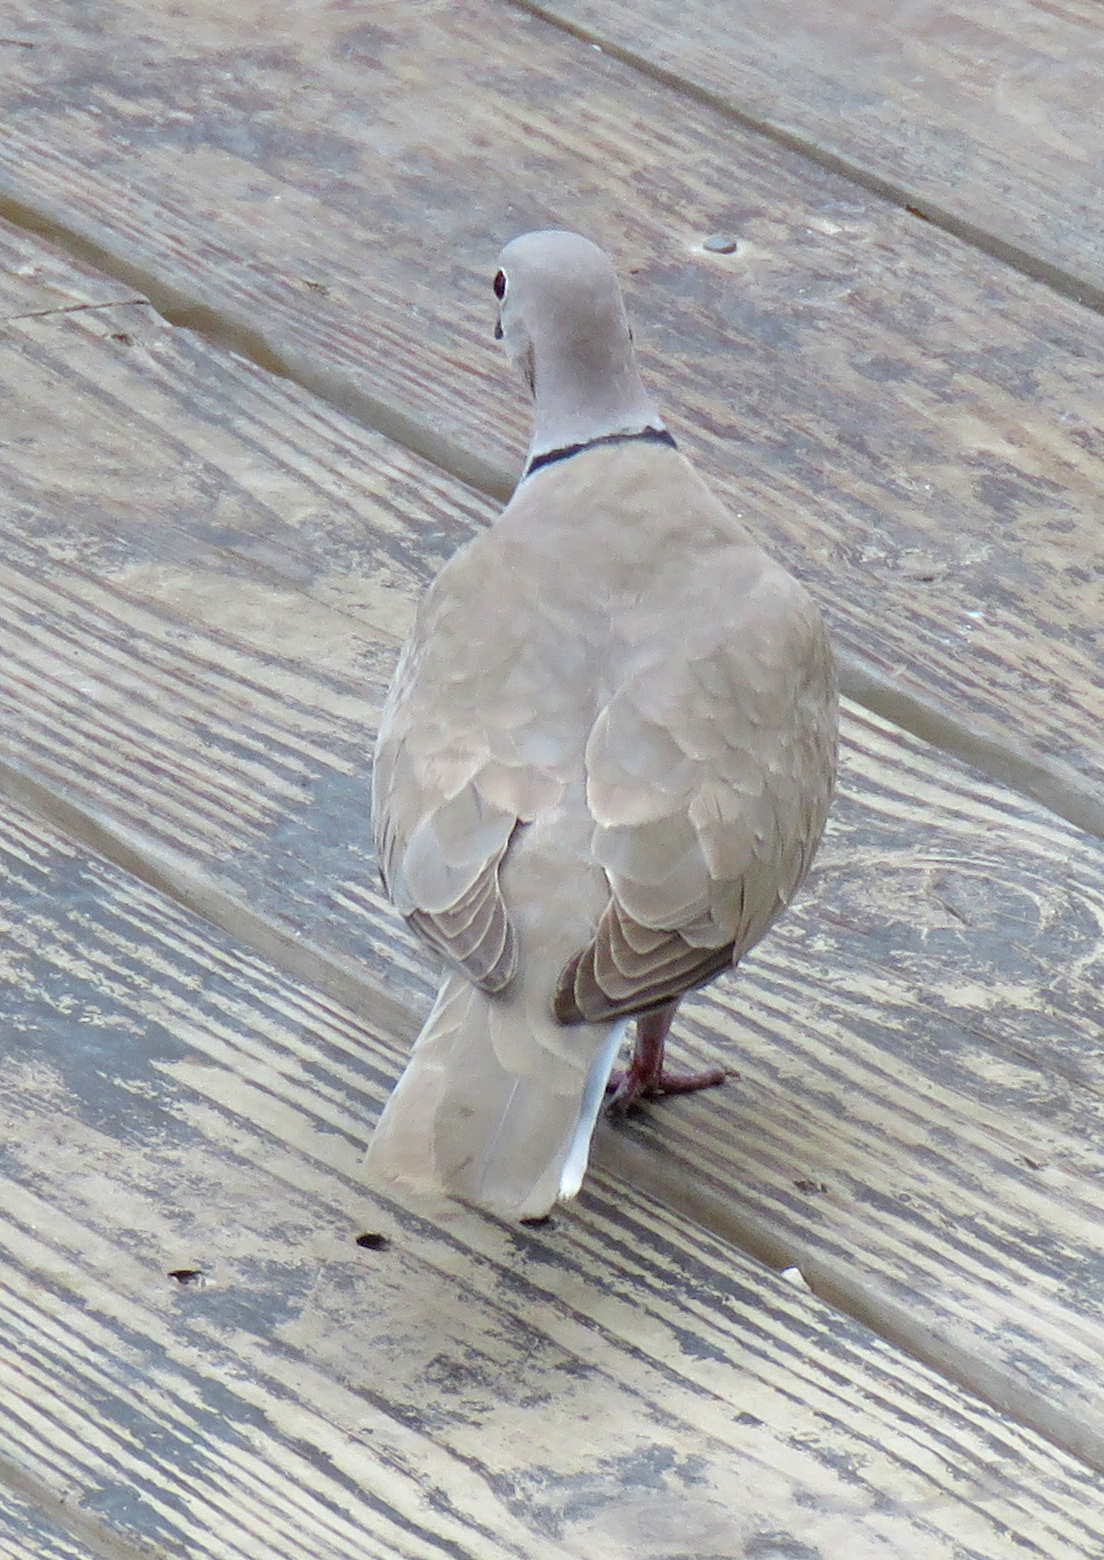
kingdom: Animalia
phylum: Chordata
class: Aves
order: Columbiformes
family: Columbidae
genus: Streptopelia
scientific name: Streptopelia decaocto
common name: Eurasian collared dove
